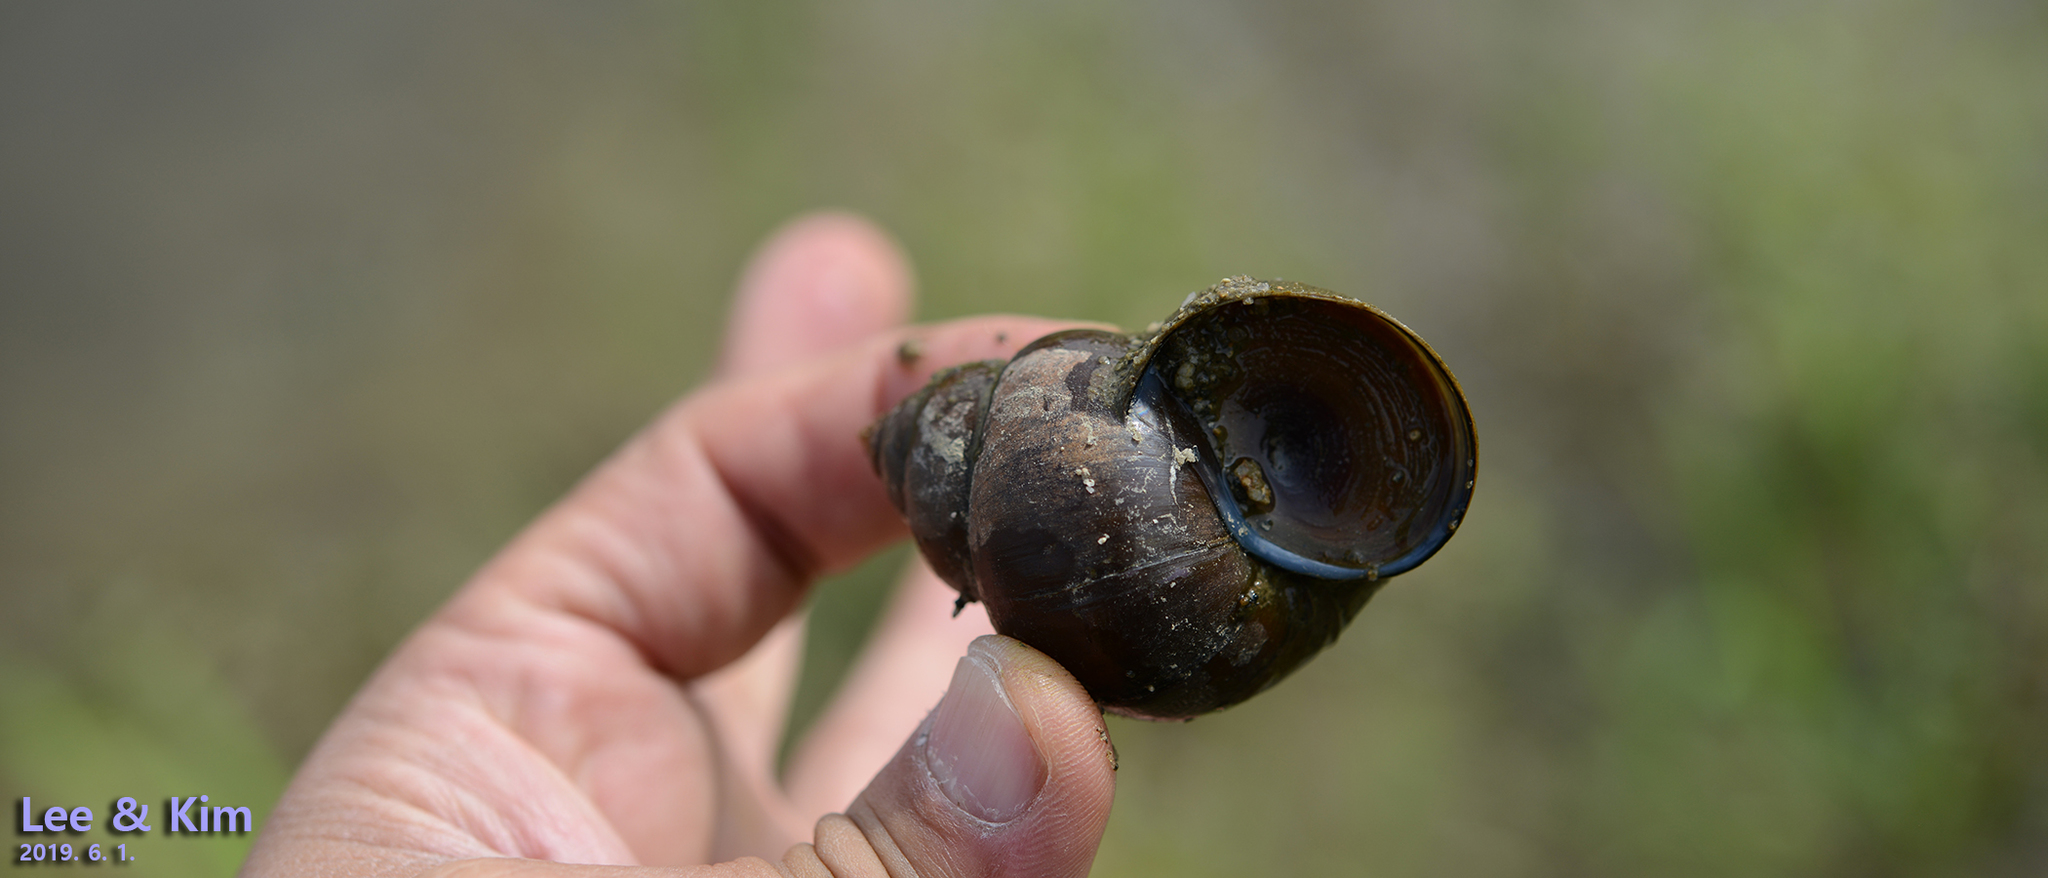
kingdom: Animalia
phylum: Mollusca
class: Gastropoda
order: Architaenioglossa
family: Viviparidae
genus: Cipangopaludina
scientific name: Cipangopaludina chinensis
